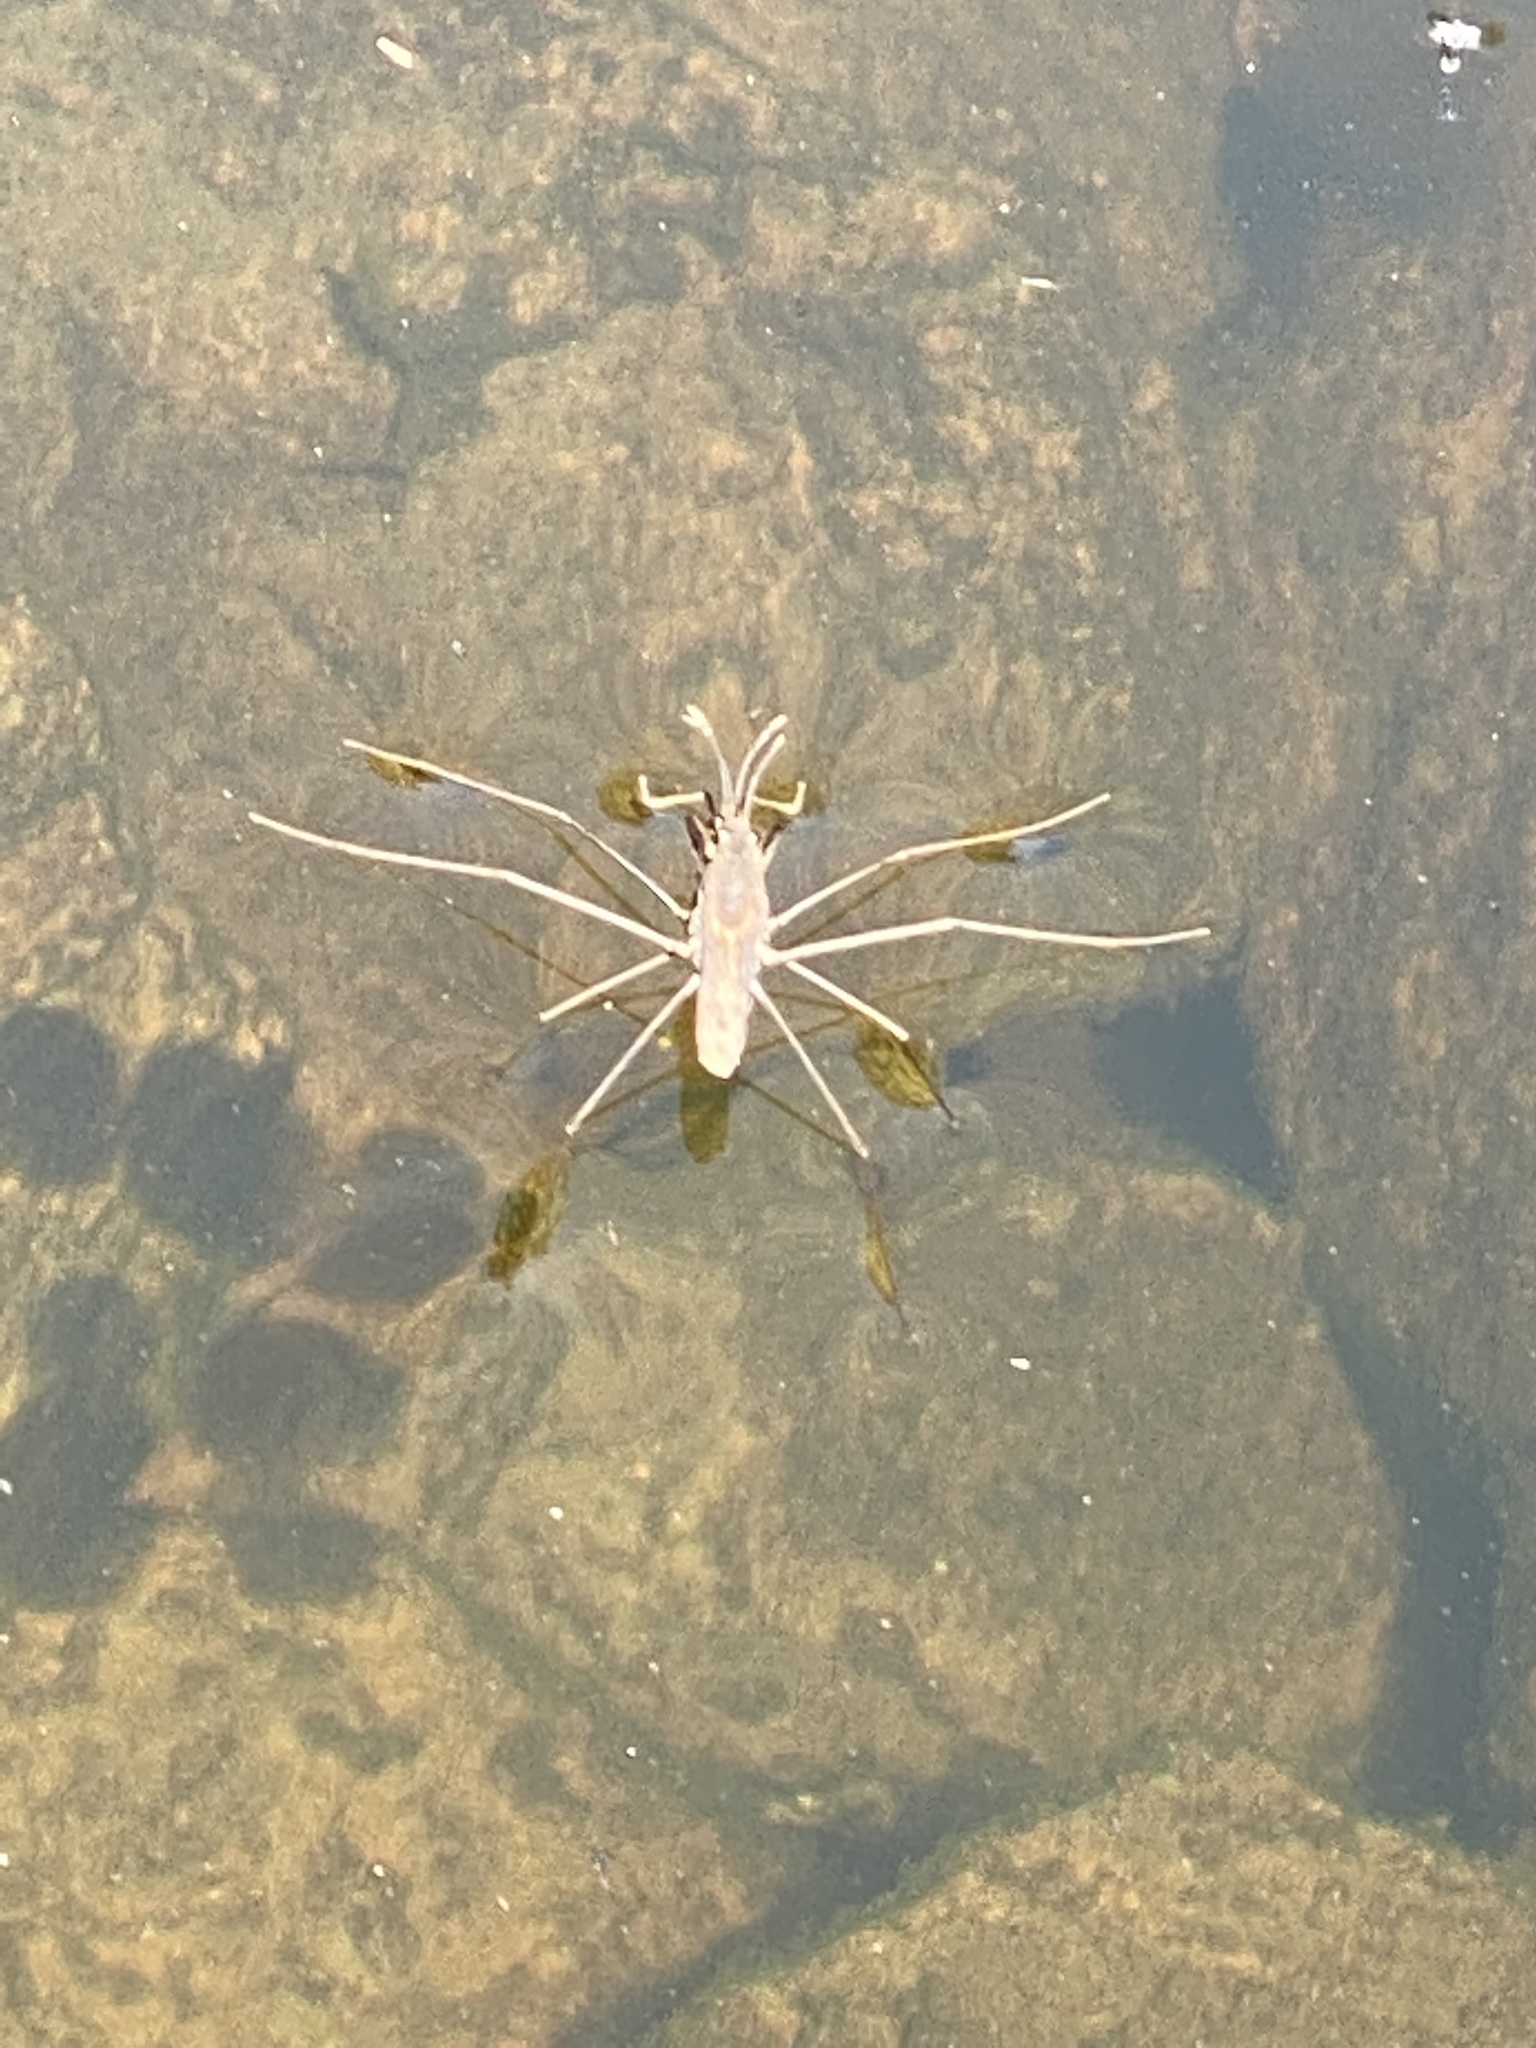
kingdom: Animalia
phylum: Arthropoda
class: Insecta
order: Hemiptera
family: Gerridae
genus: Aquarius
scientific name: Aquarius remigis
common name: Common water strider
